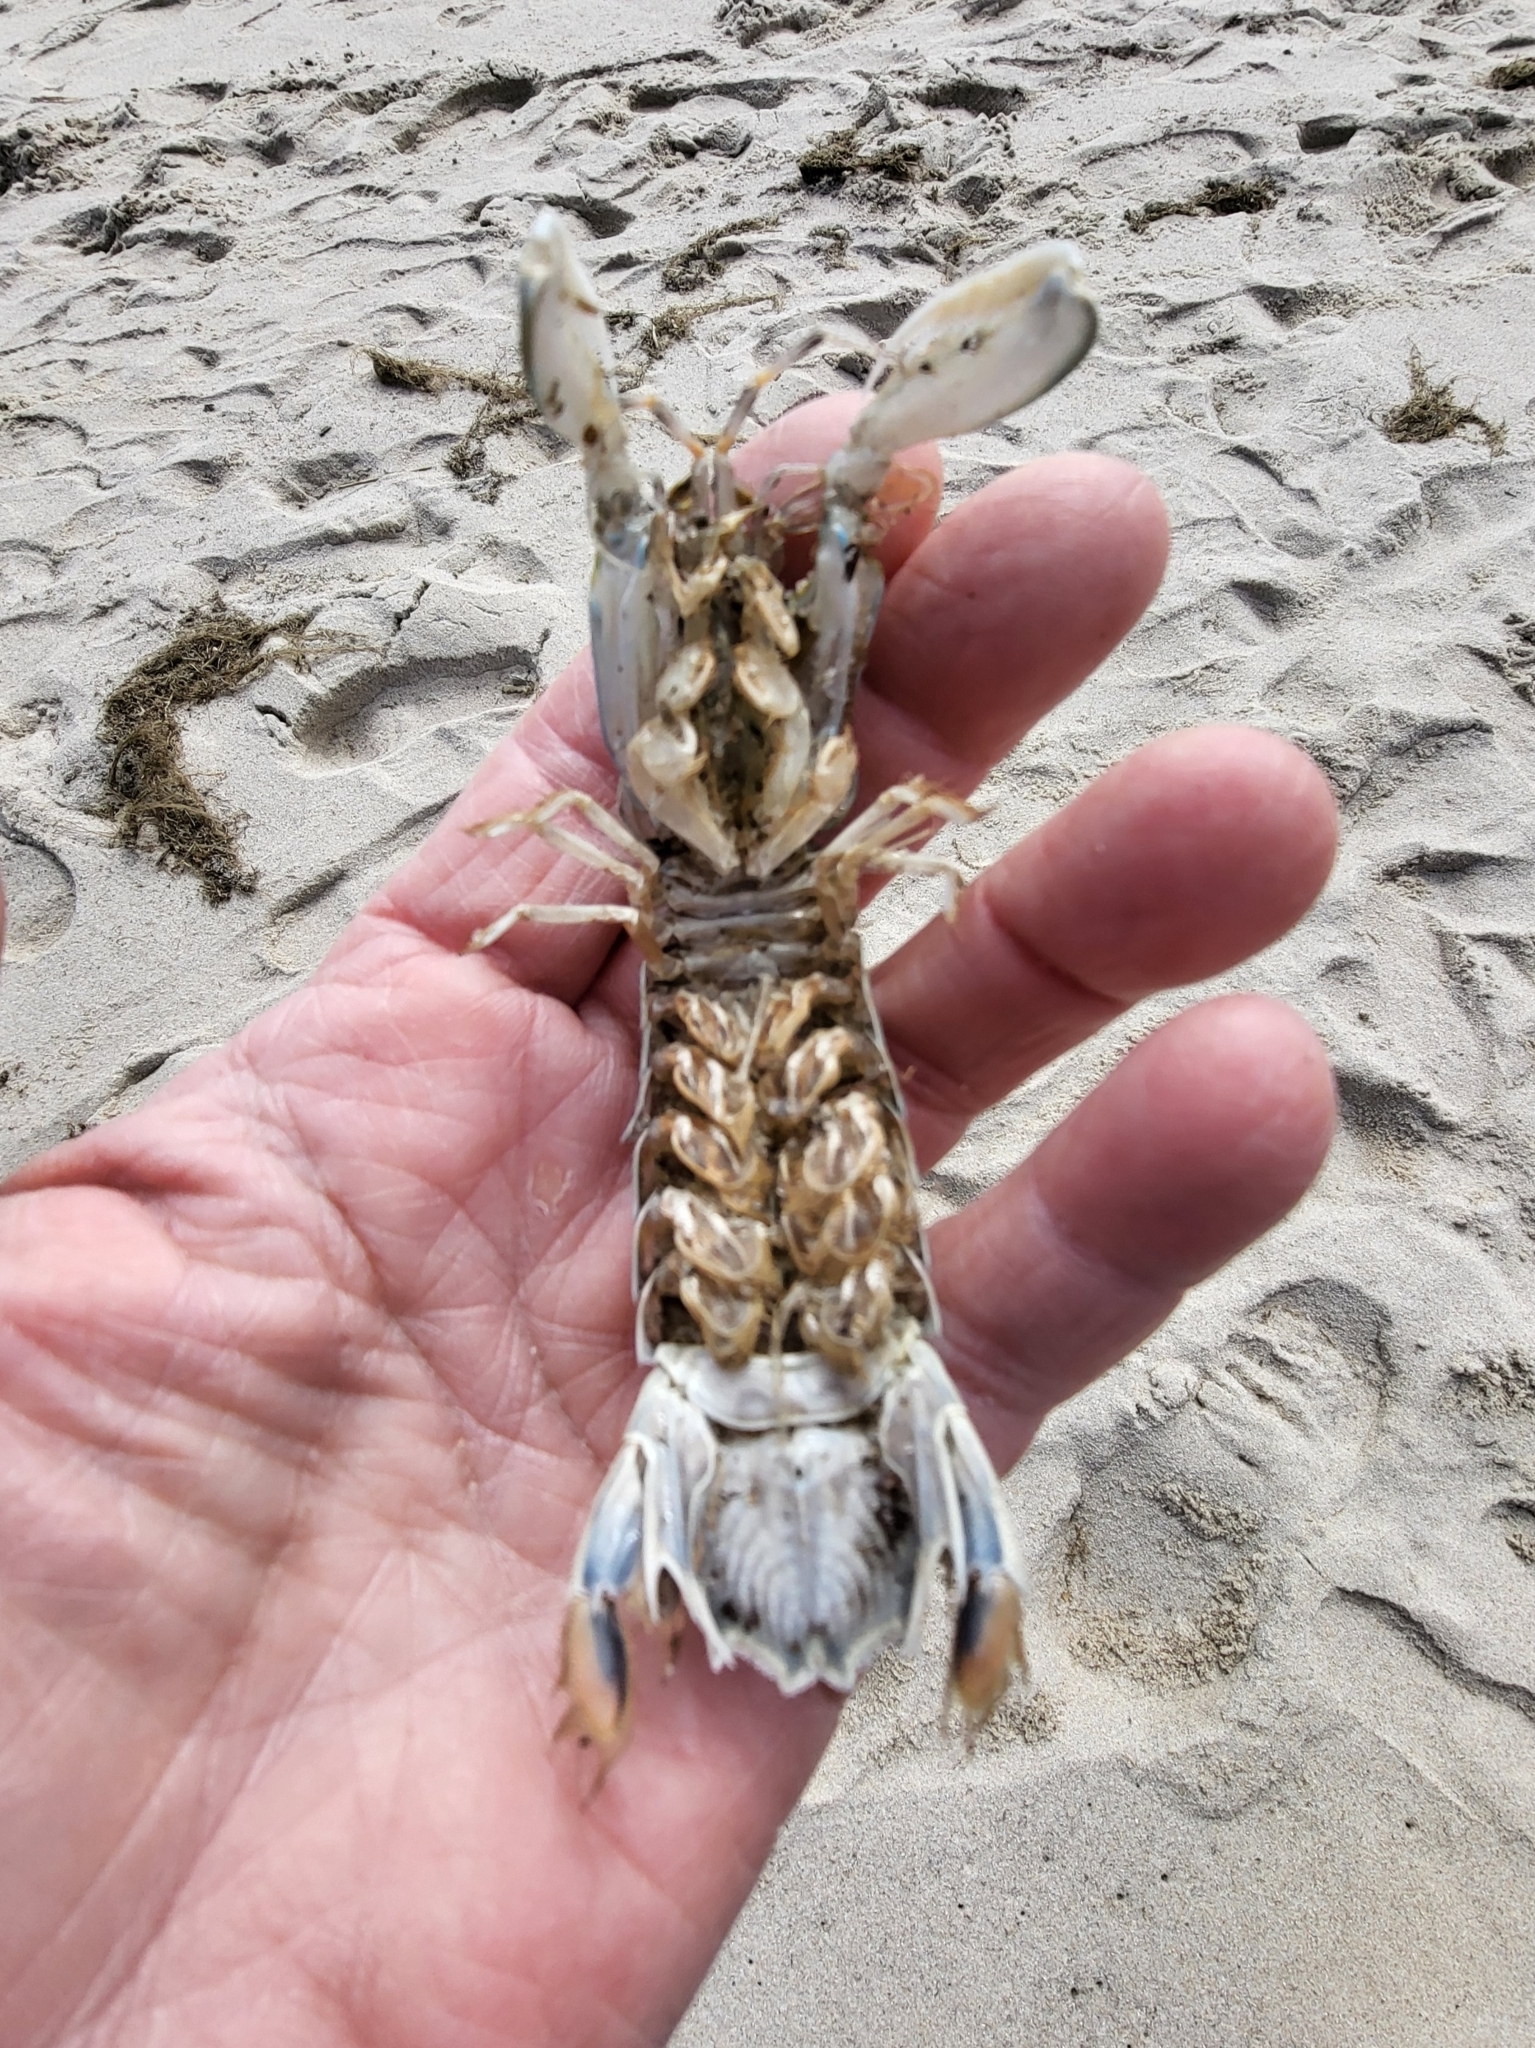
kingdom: Animalia
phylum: Arthropoda
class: Malacostraca
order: Stomatopoda
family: Squillidae
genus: Squilla
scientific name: Squilla empusa
